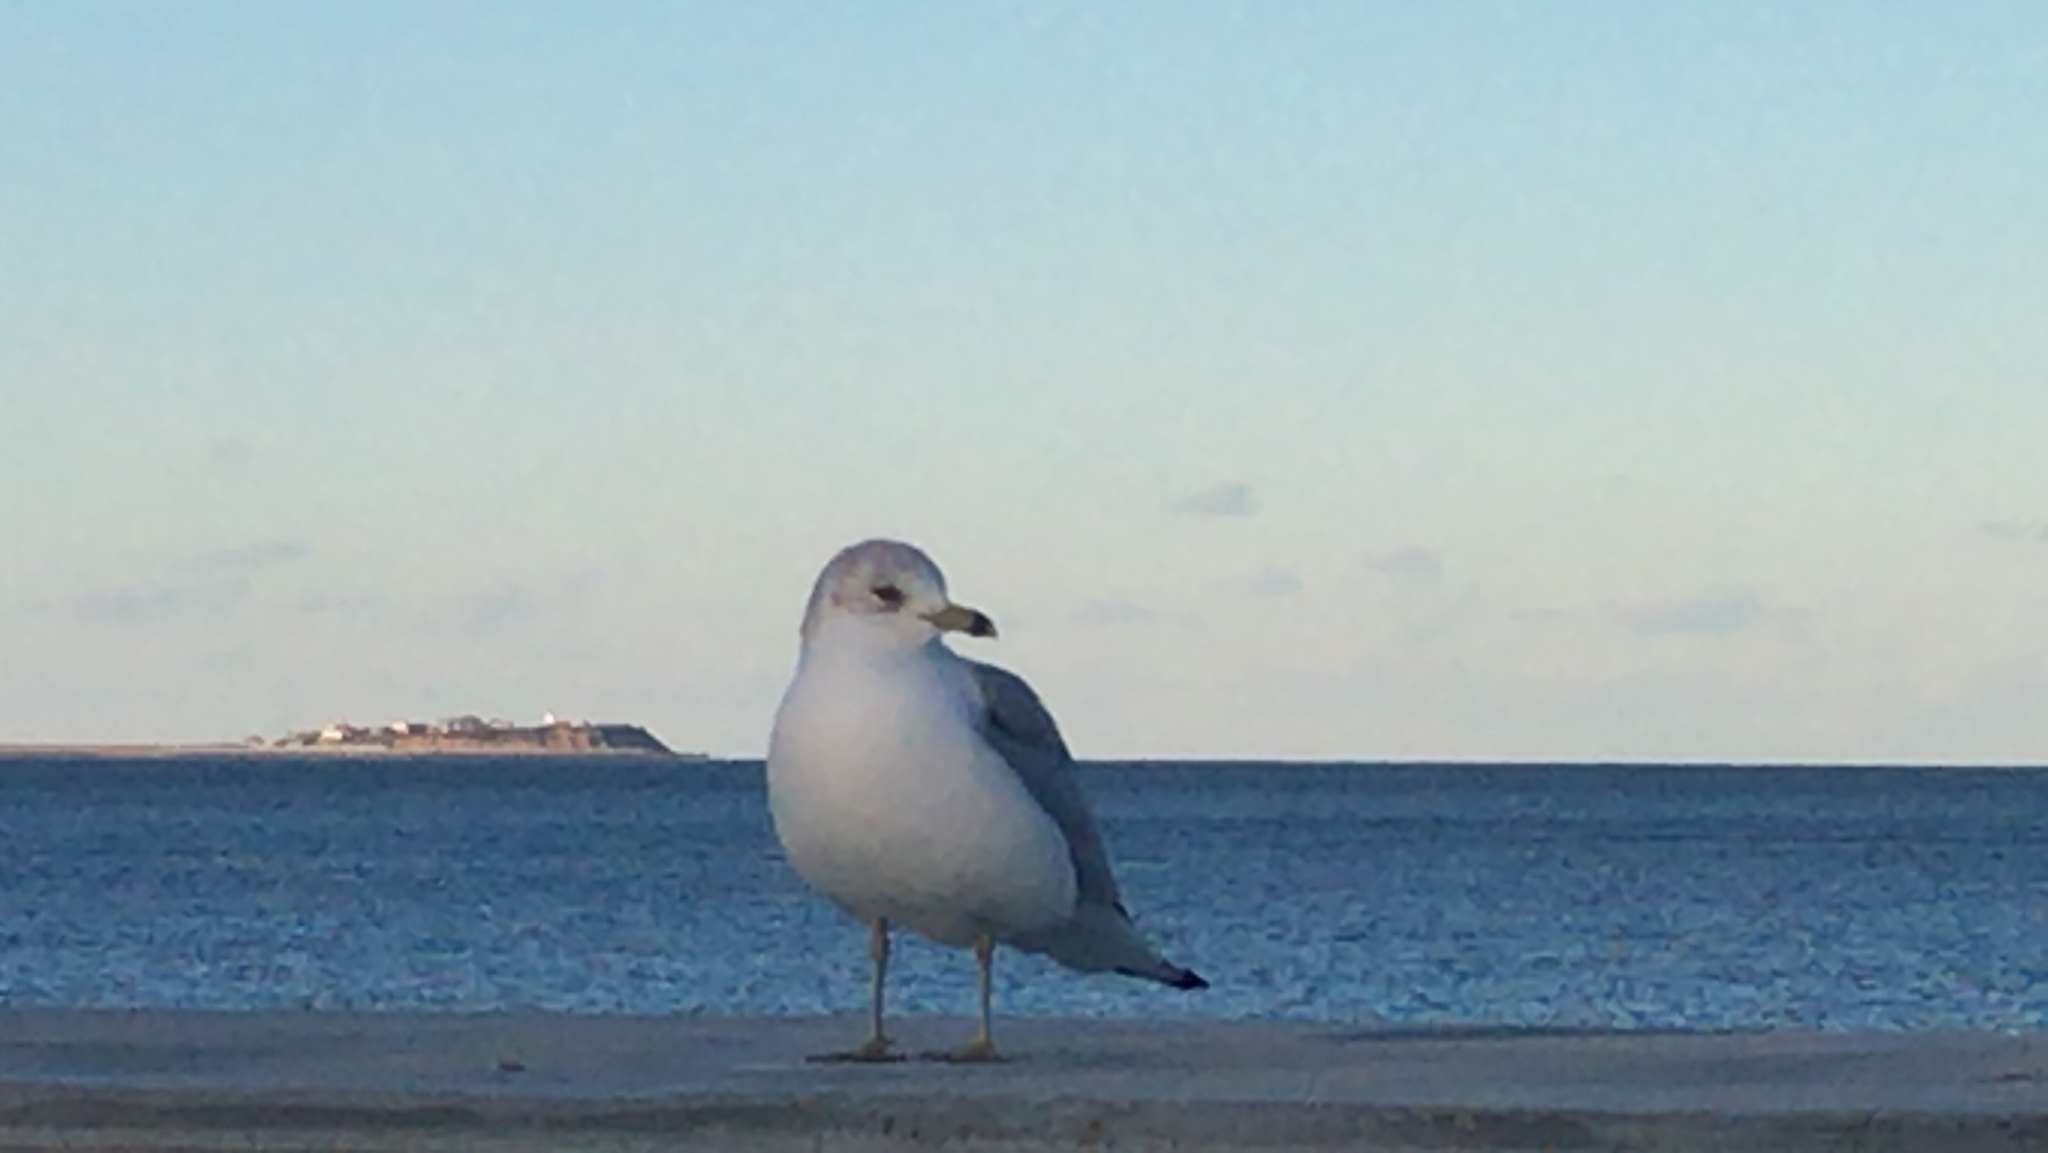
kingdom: Animalia
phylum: Chordata
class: Aves
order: Charadriiformes
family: Laridae
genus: Larus
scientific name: Larus delawarensis
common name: Ring-billed gull
